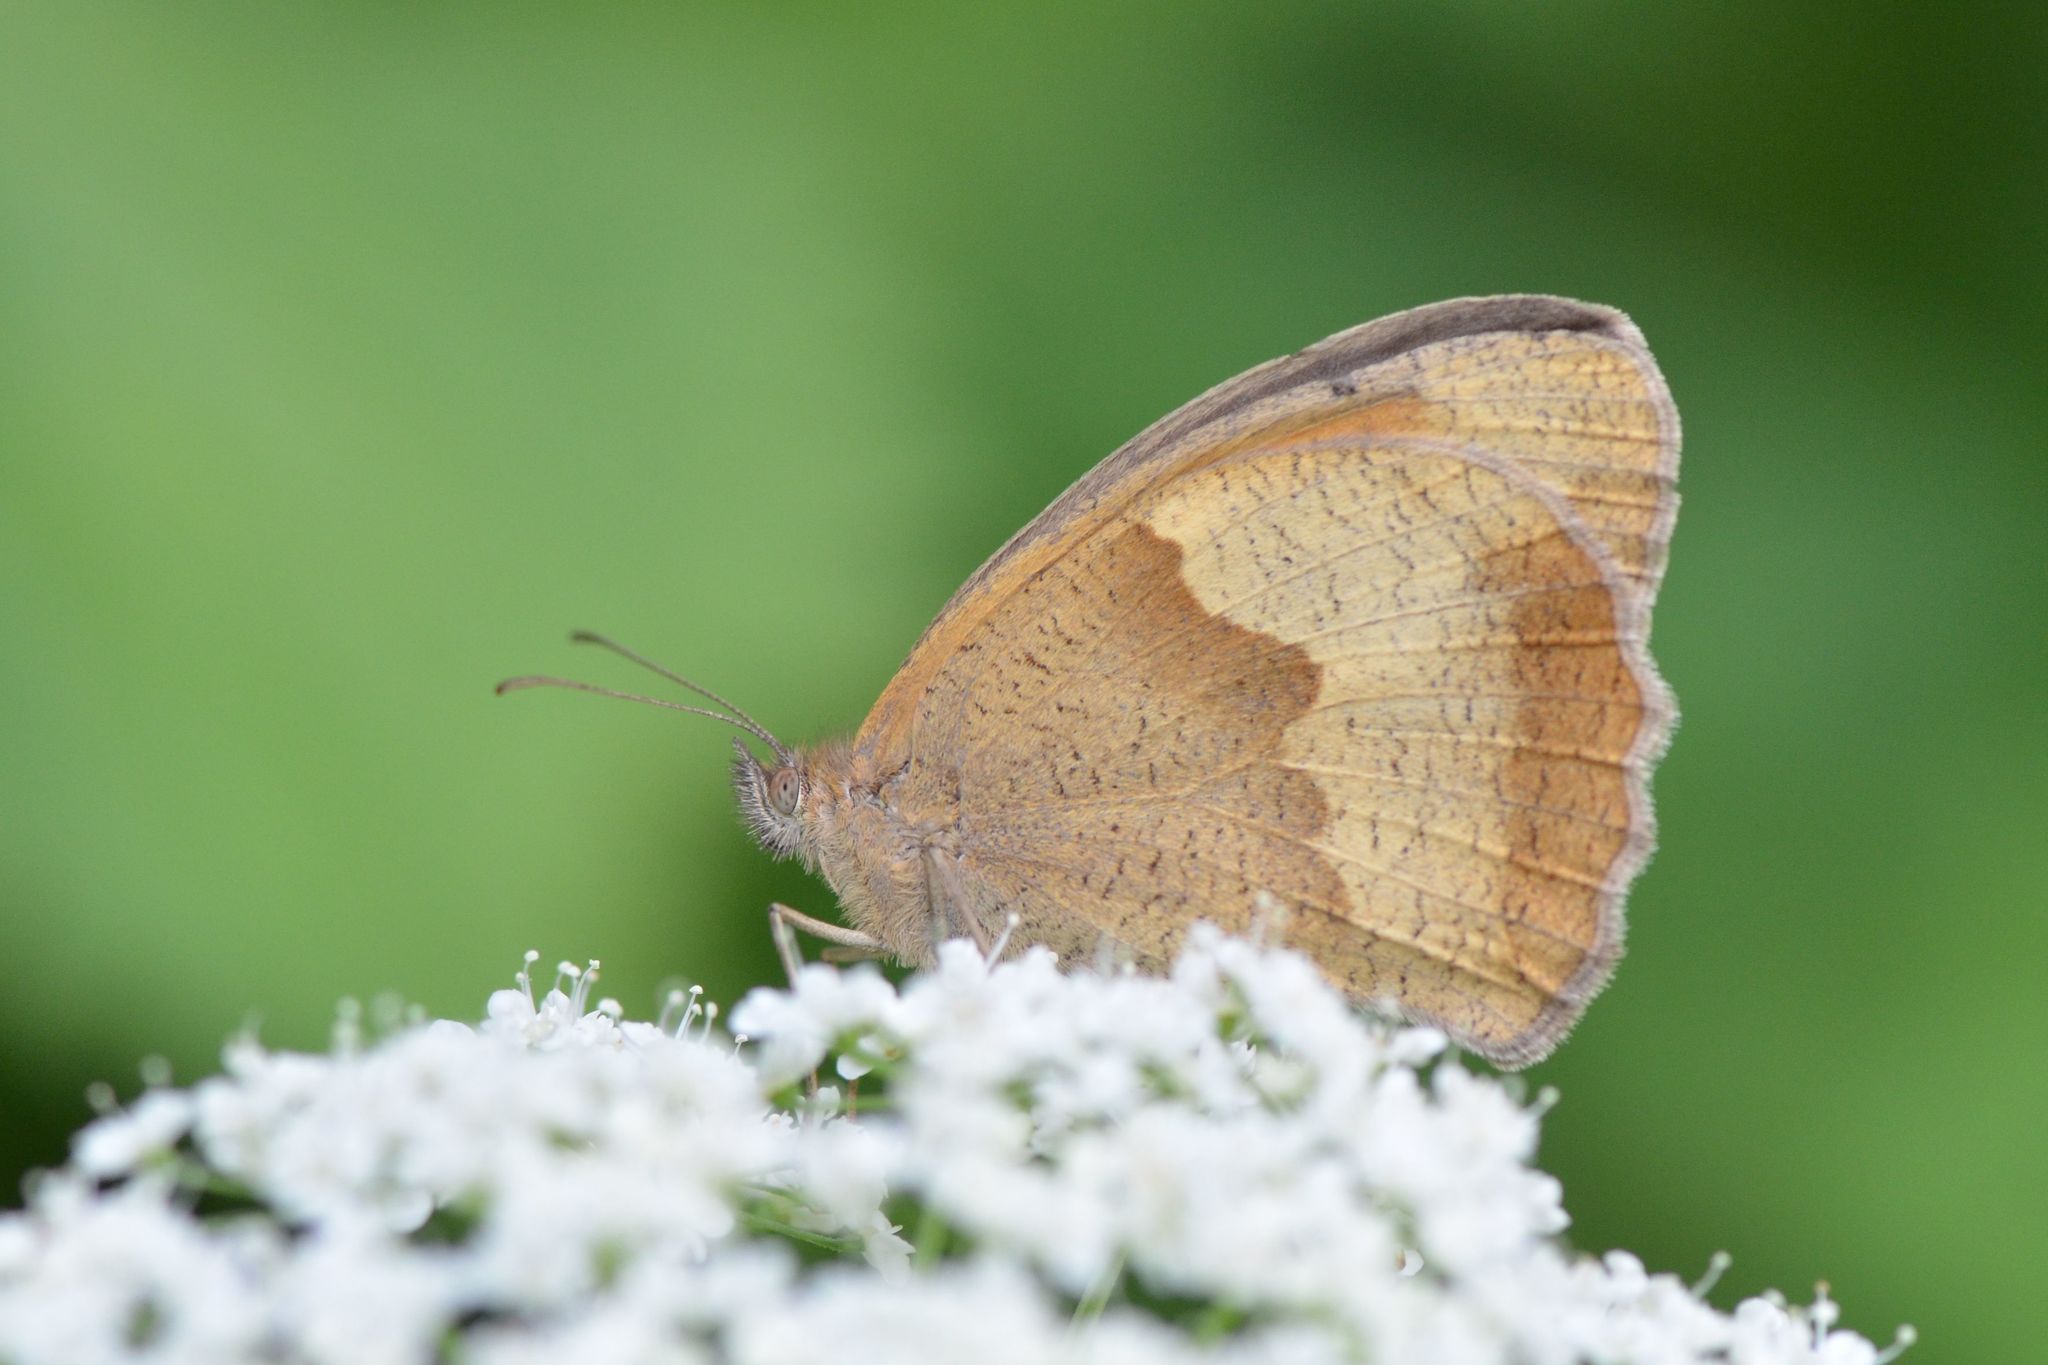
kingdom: Animalia
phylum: Arthropoda
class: Insecta
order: Lepidoptera
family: Nymphalidae
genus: Maniola
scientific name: Maniola jurtina
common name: Meadow brown
